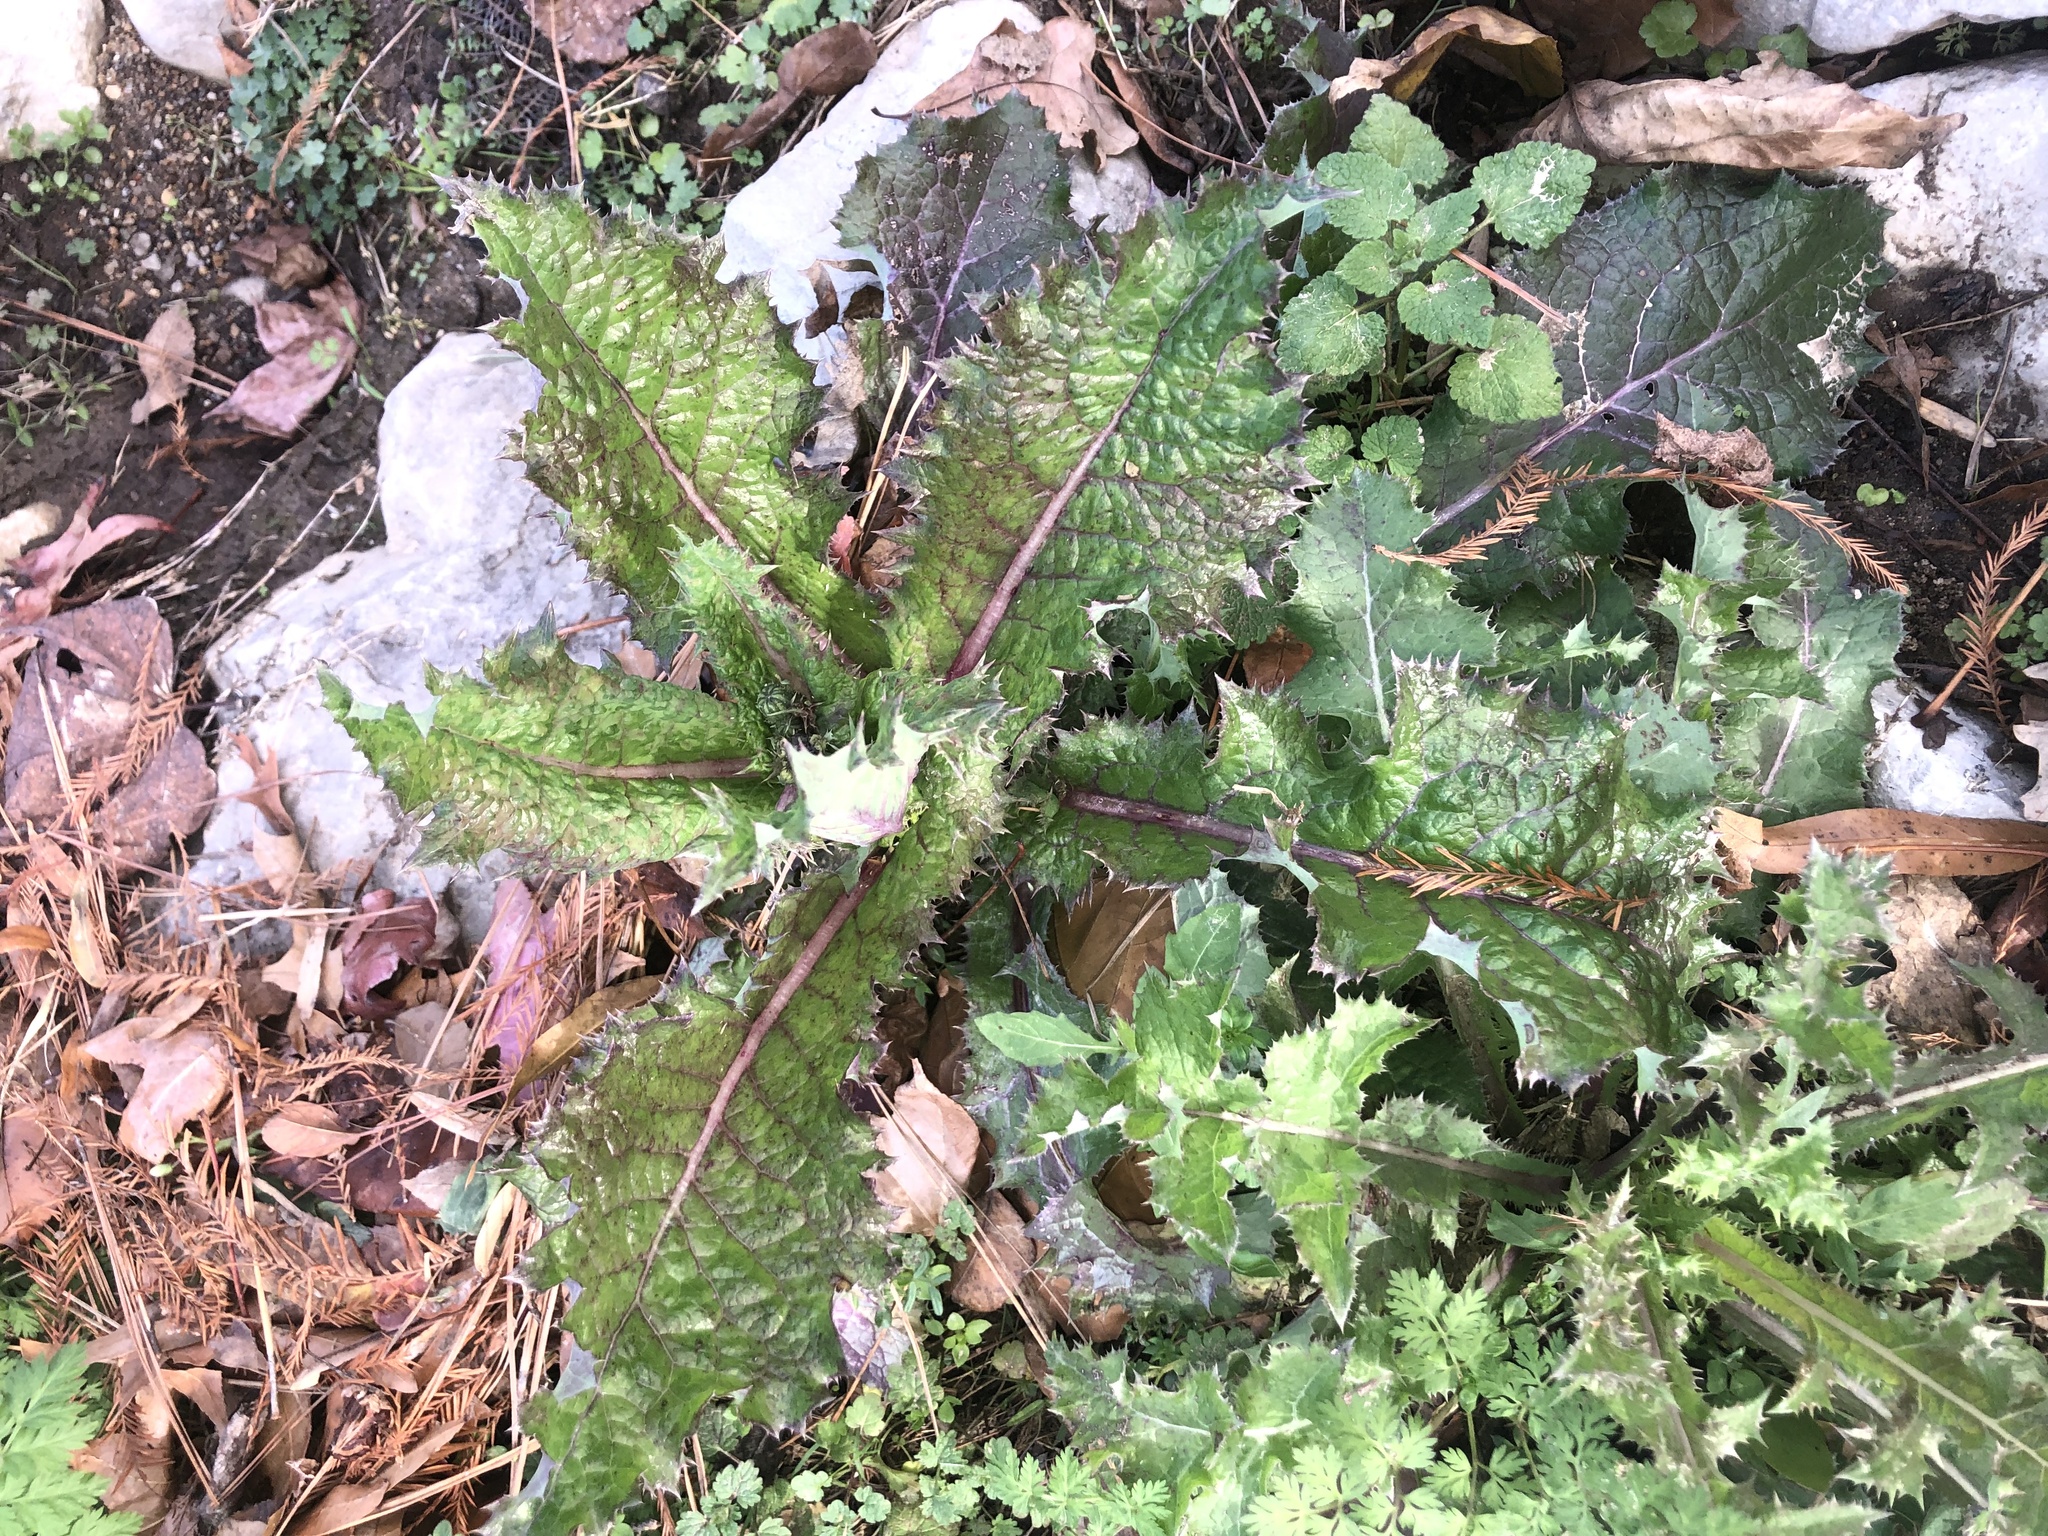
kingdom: Plantae
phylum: Tracheophyta
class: Magnoliopsida
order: Asterales
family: Asteraceae
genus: Sonchus
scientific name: Sonchus asper
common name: Prickly sow-thistle
